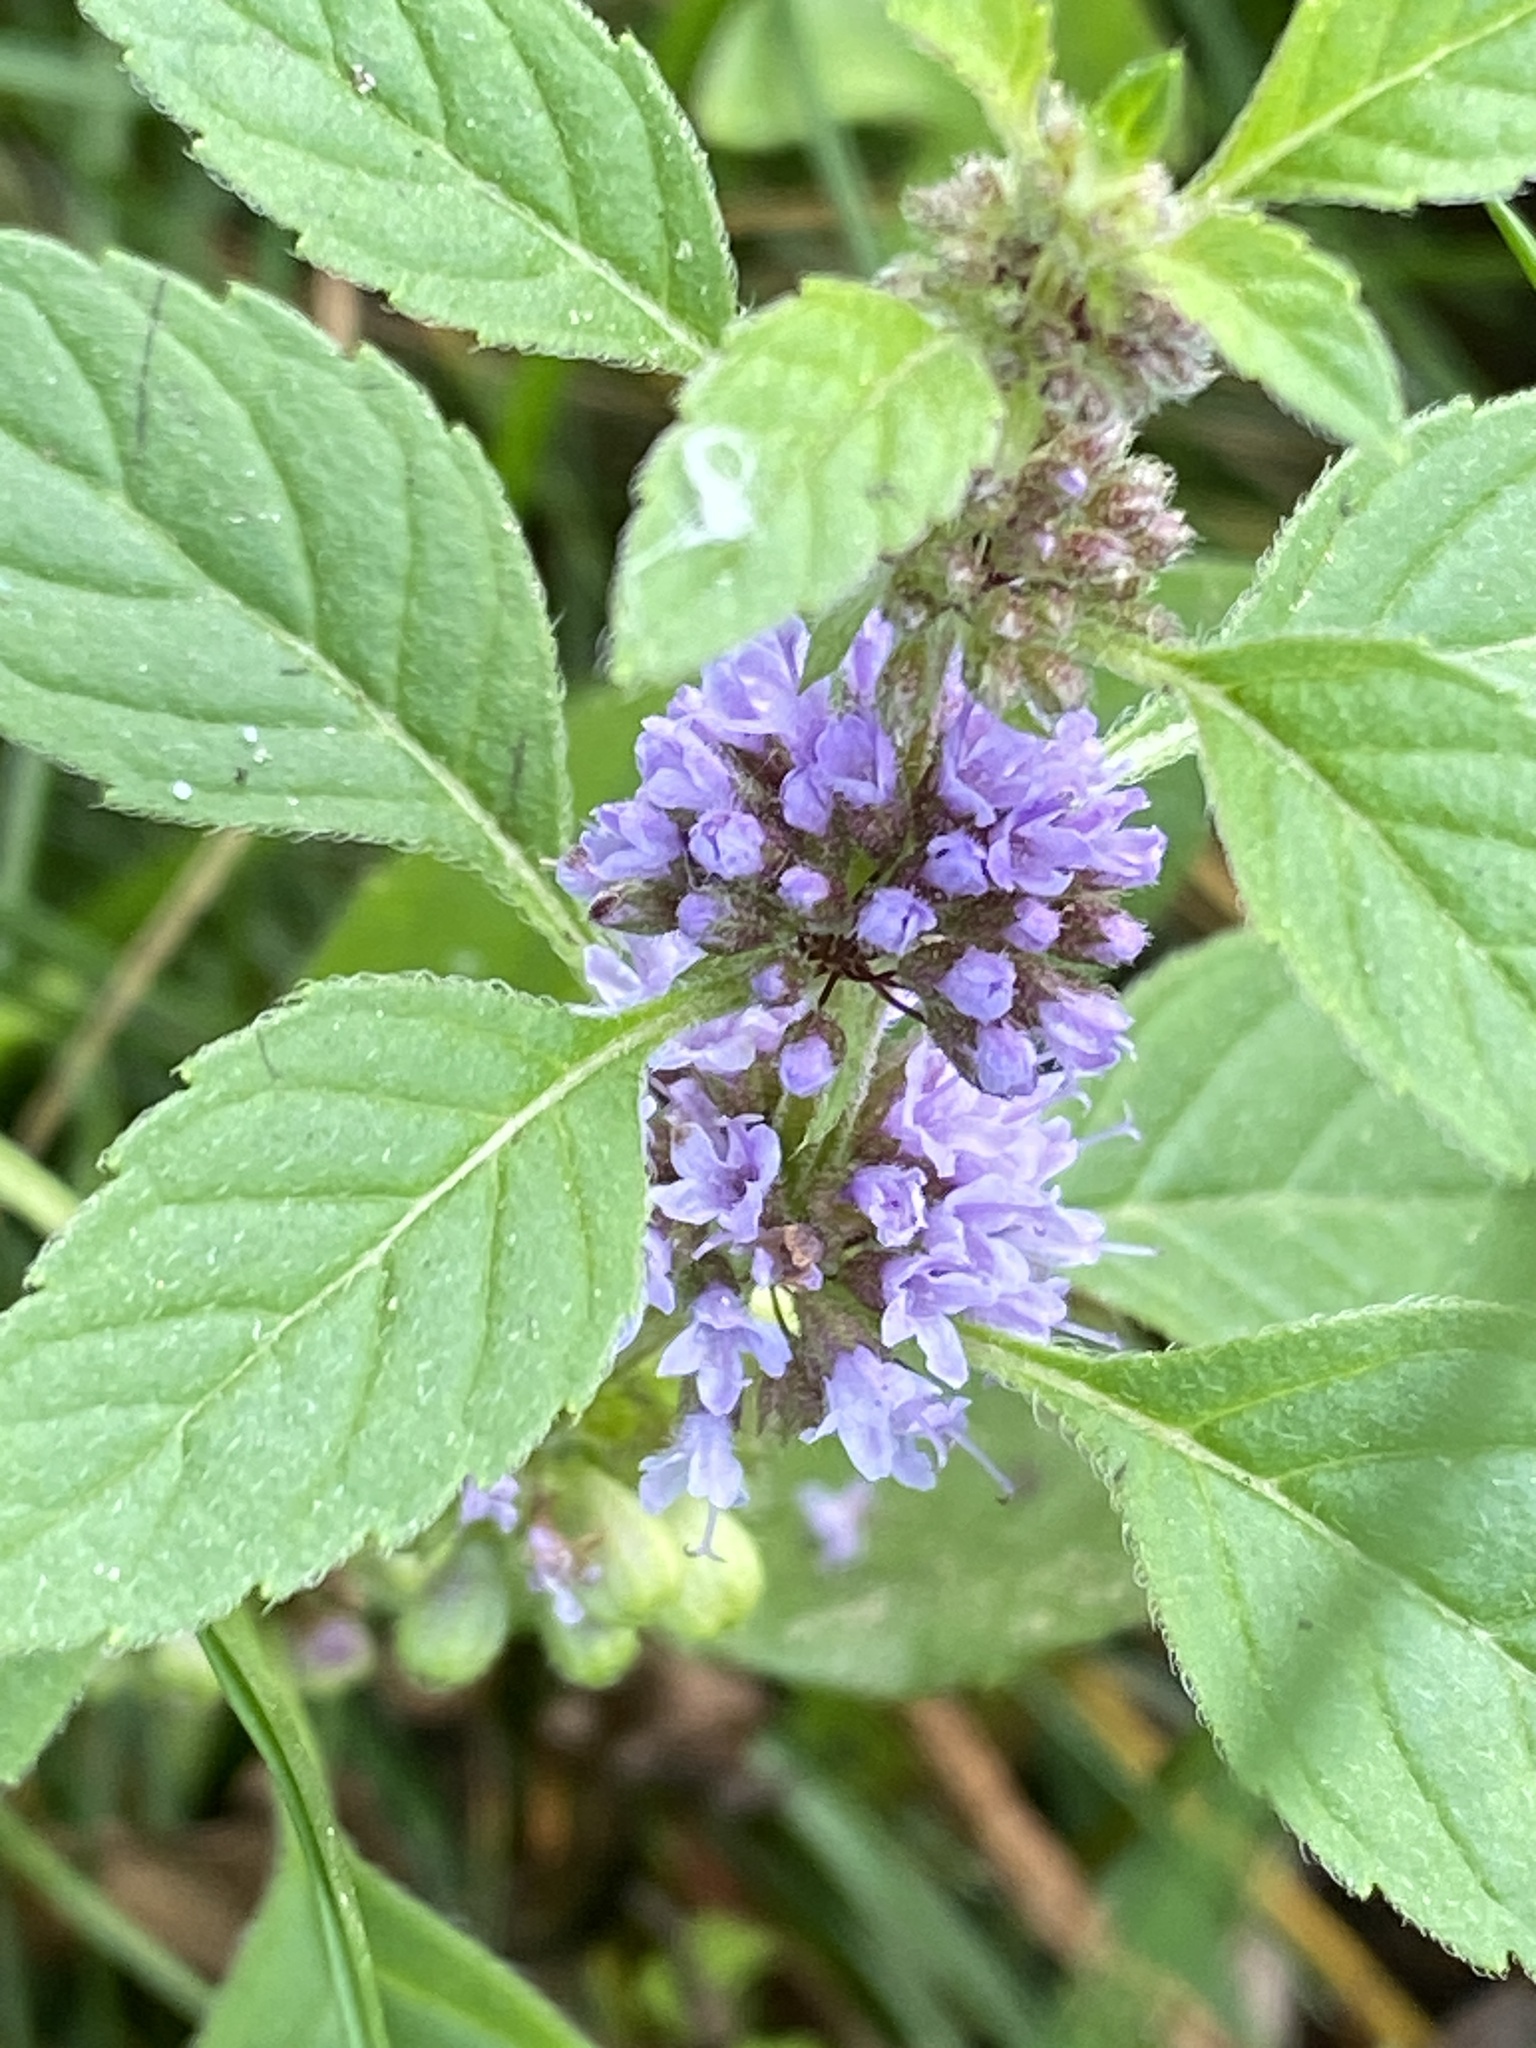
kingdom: Plantae
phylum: Tracheophyta
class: Magnoliopsida
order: Lamiales
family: Lamiaceae
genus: Mentha
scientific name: Mentha arvensis
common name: Corn mint
